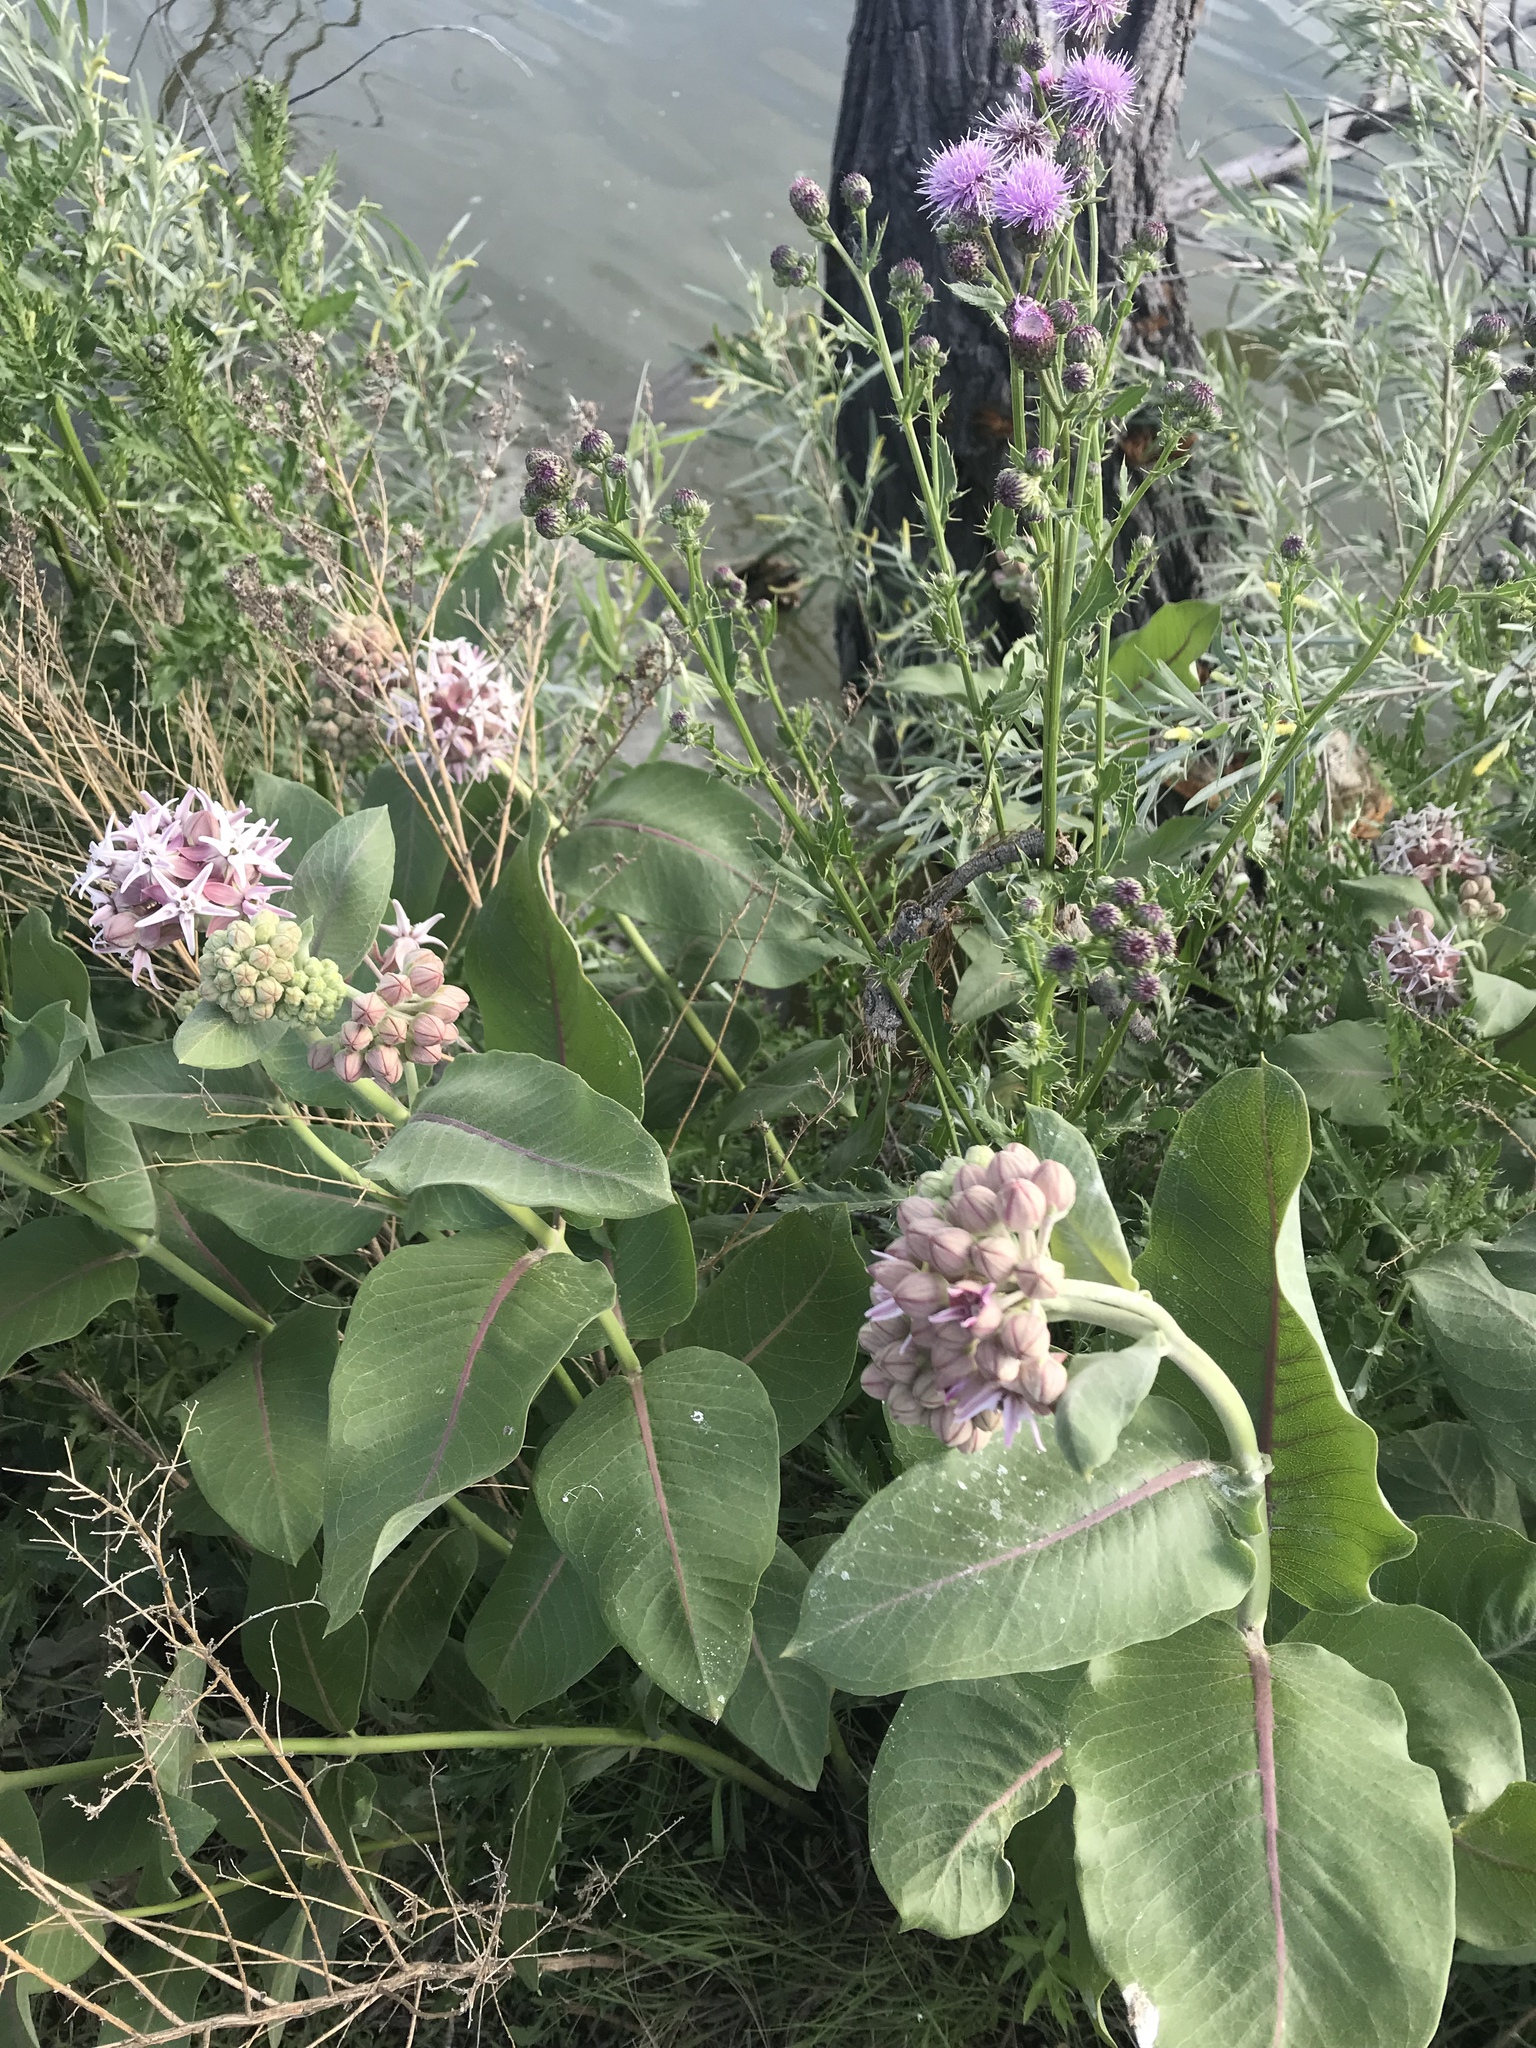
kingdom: Plantae
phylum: Tracheophyta
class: Magnoliopsida
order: Gentianales
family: Apocynaceae
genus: Asclepias
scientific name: Asclepias speciosa
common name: Showy milkweed
